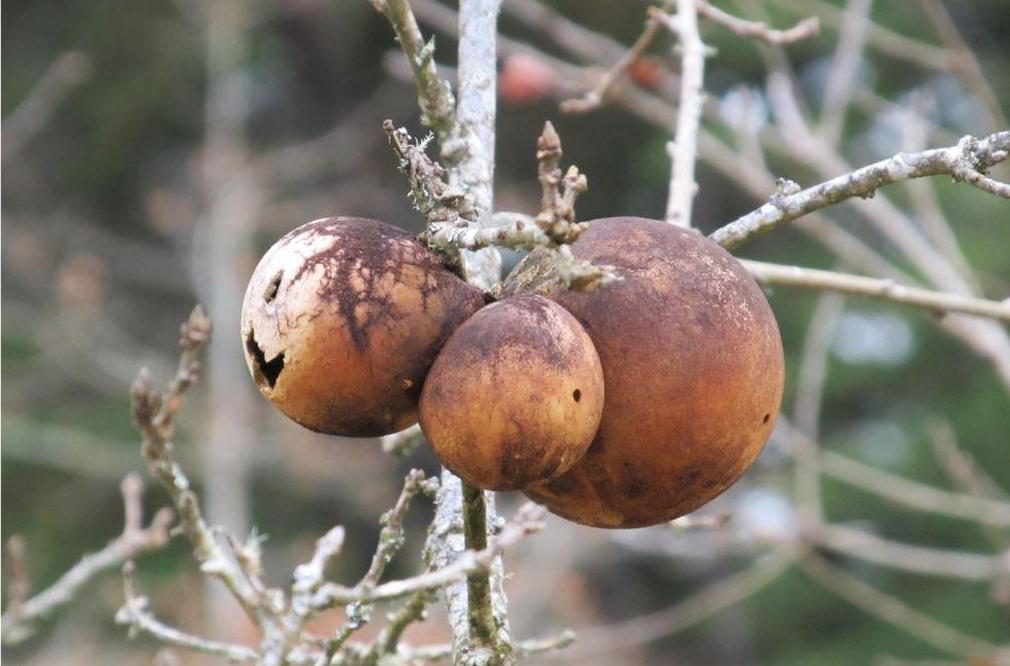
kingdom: Animalia
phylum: Arthropoda
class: Insecta
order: Hymenoptera
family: Cynipidae
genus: Andricus
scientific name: Andricus quercuscalifornicus
